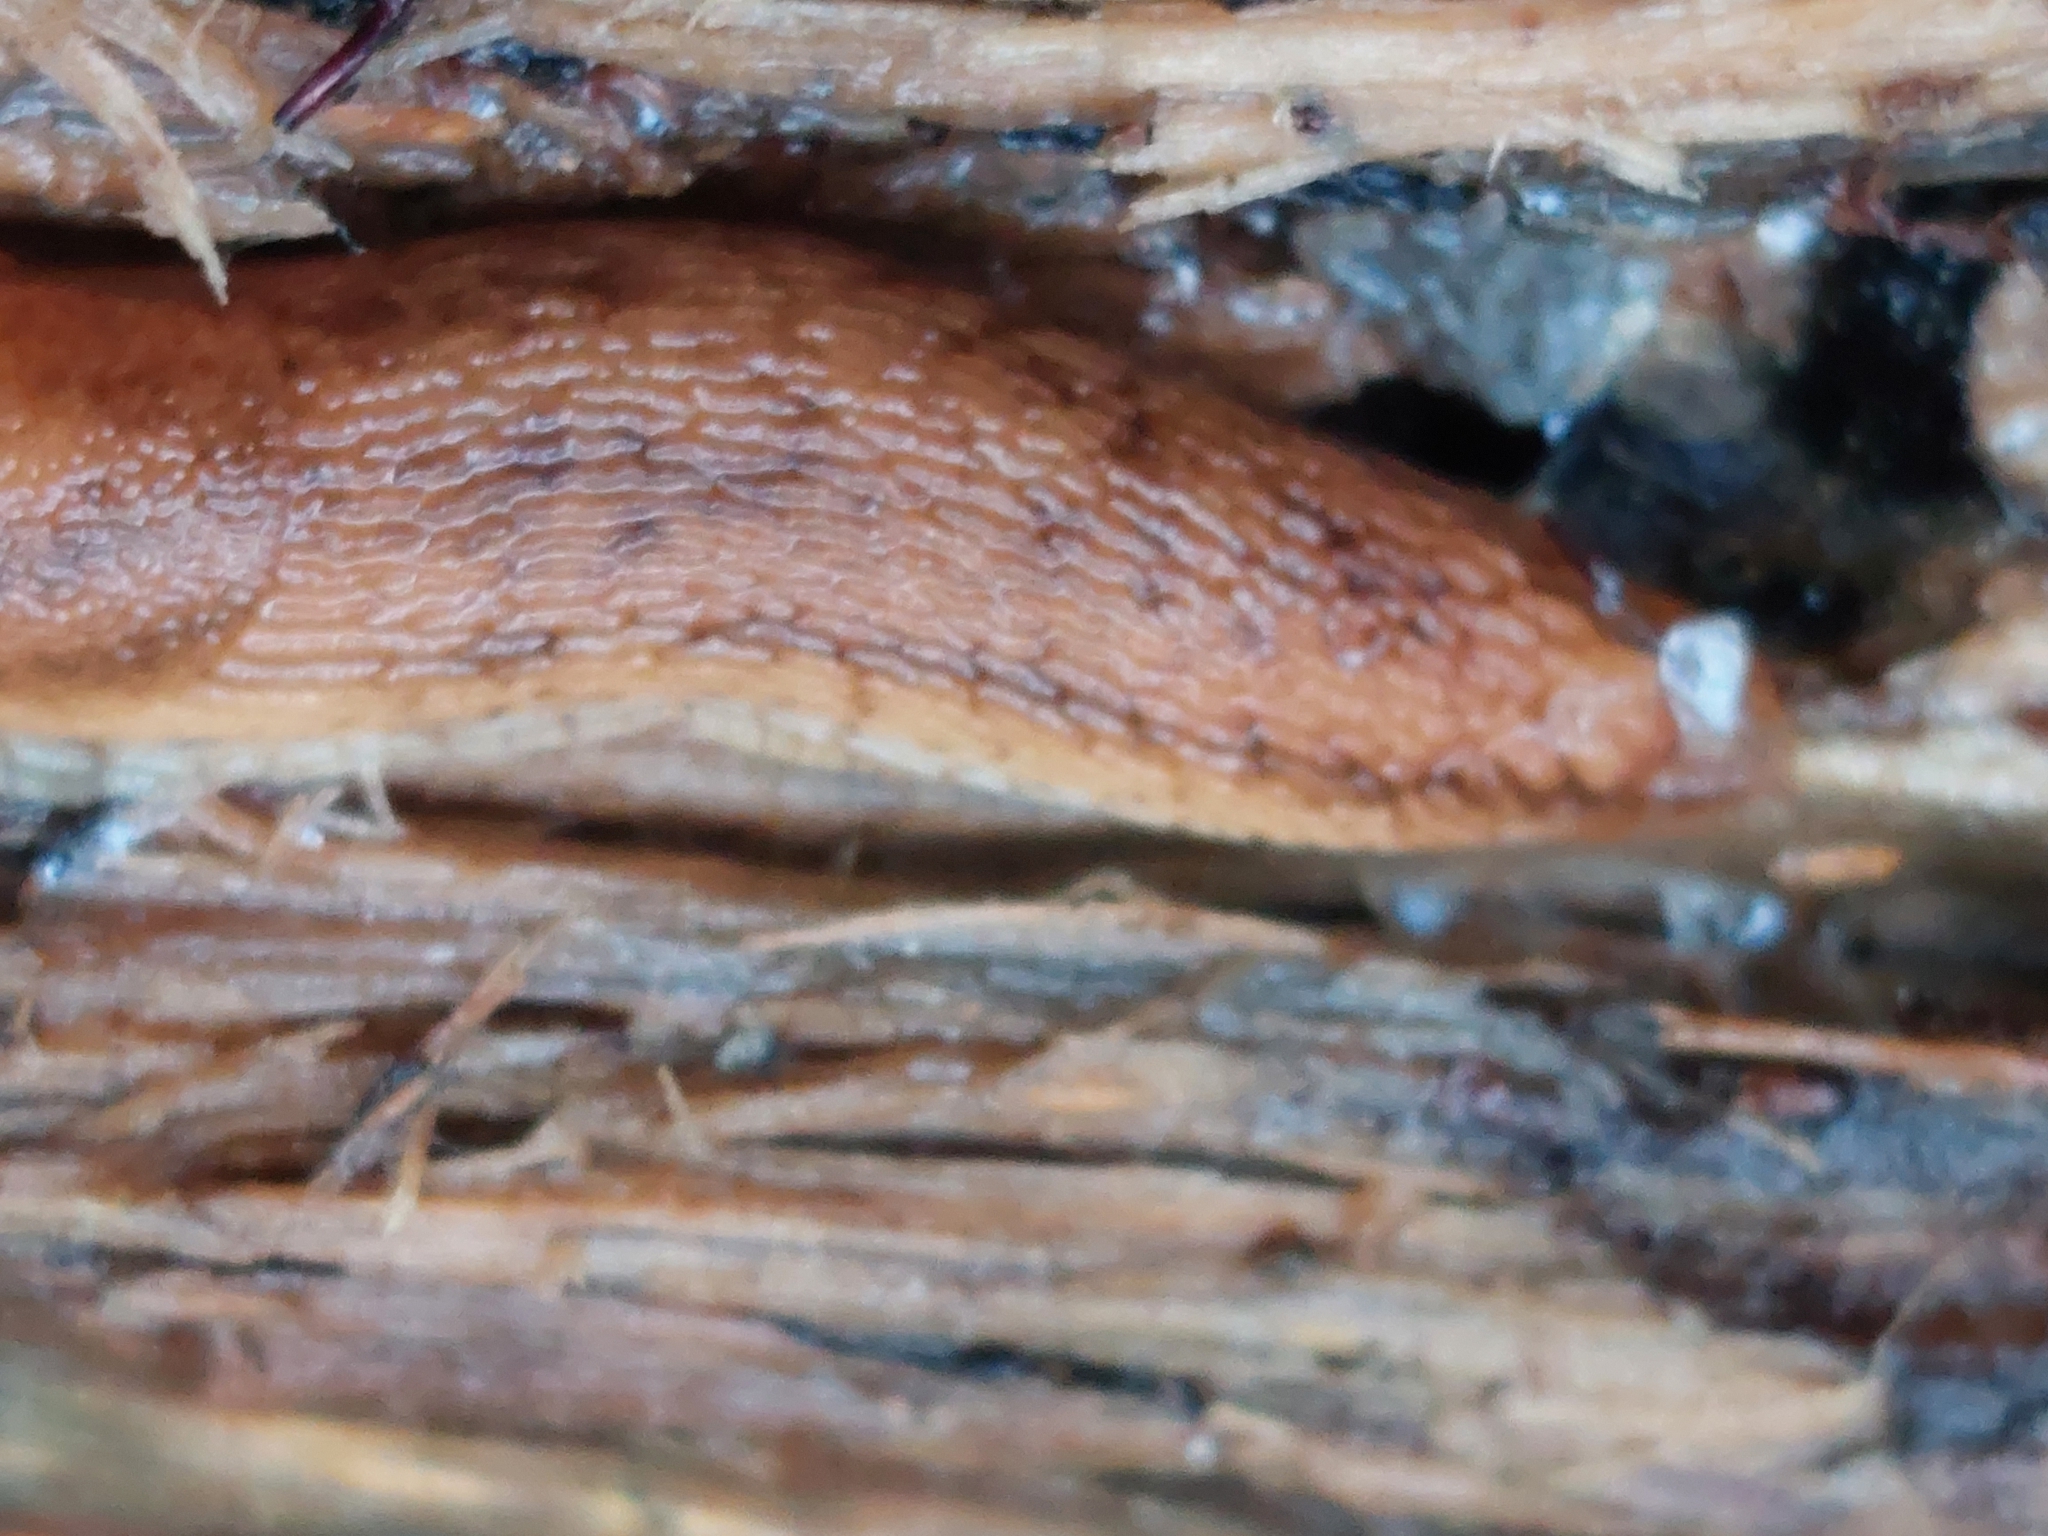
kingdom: Animalia
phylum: Mollusca
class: Gastropoda
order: Stylommatophora
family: Arionidae
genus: Arion
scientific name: Arion fuscus
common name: Northern dusky slug
